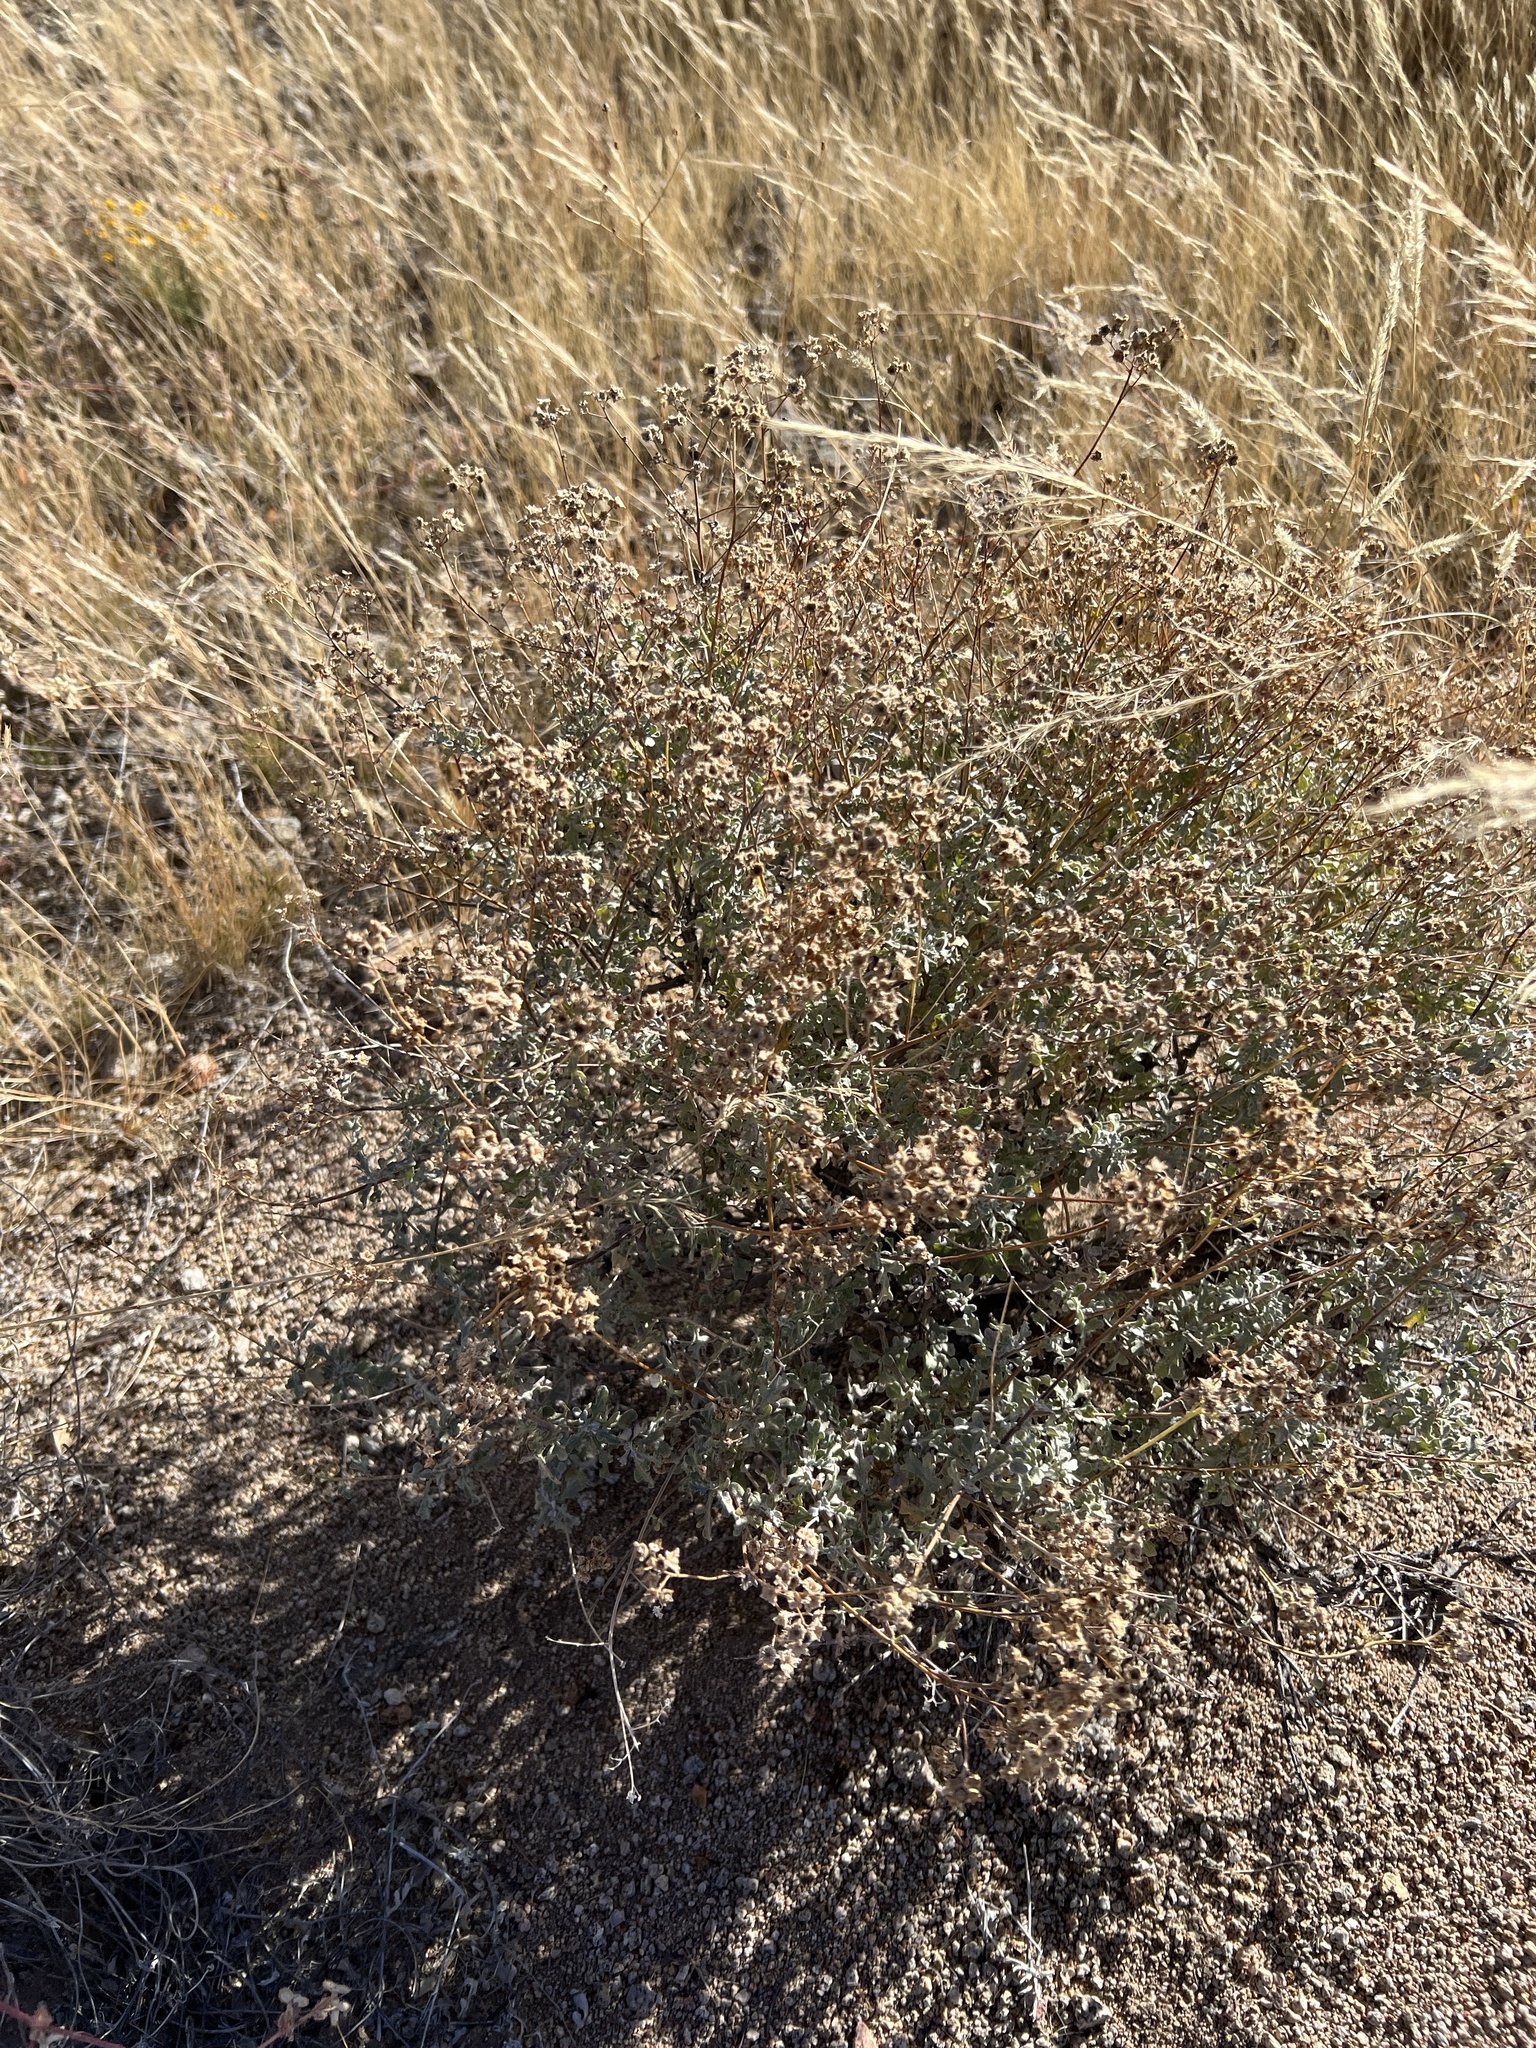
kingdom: Plantae
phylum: Tracheophyta
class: Magnoliopsida
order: Asterales
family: Asteraceae
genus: Parthenium
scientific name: Parthenium incanum
